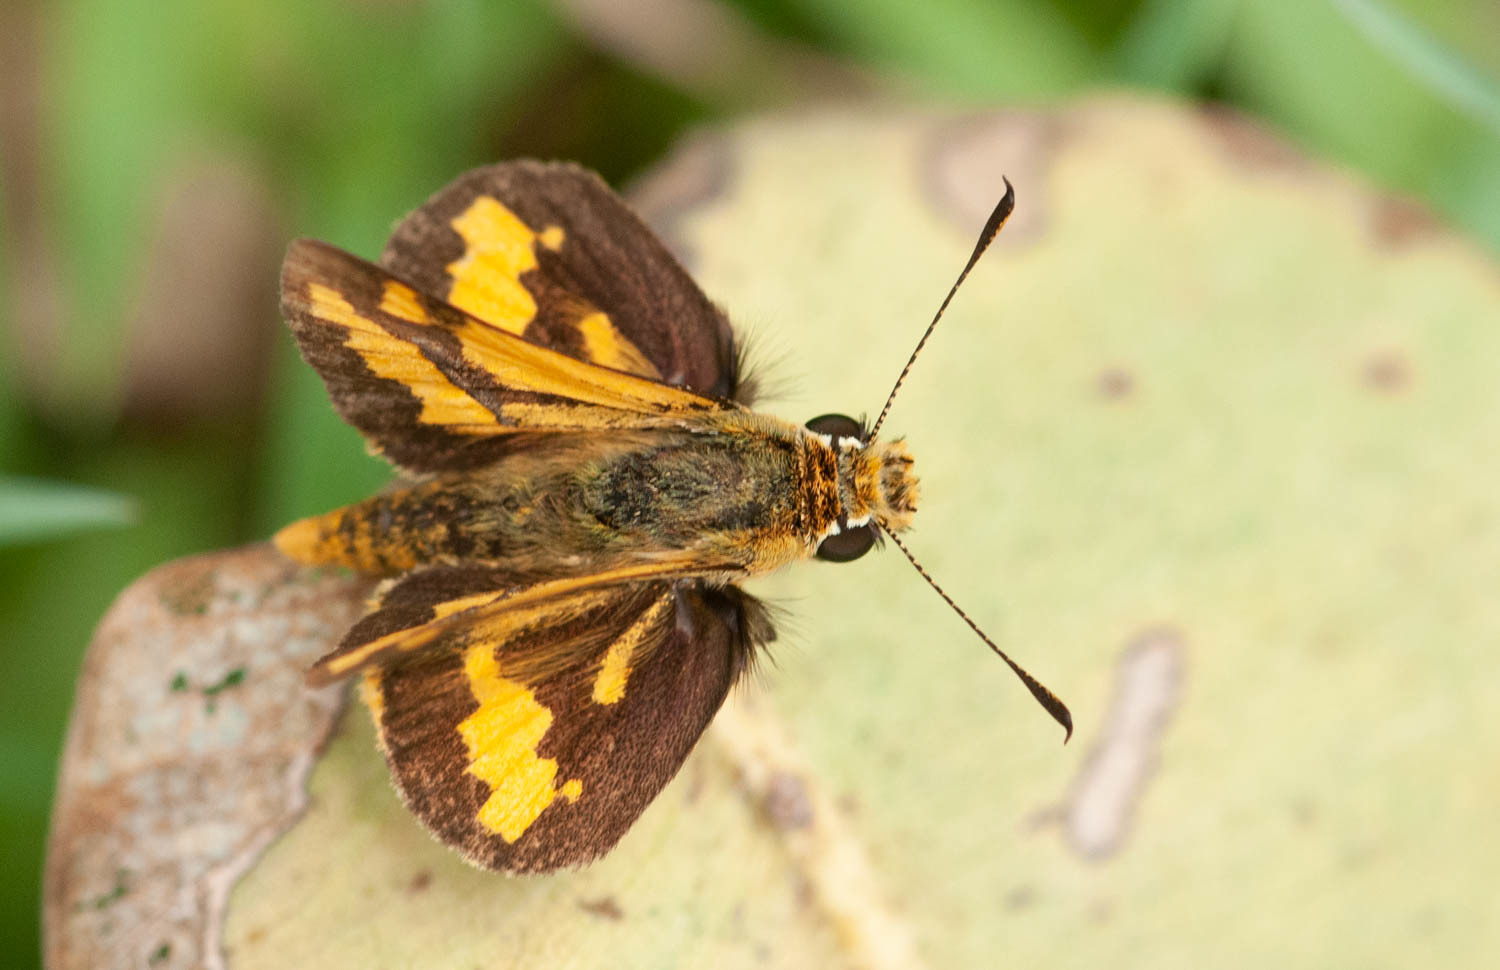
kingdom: Animalia
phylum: Arthropoda
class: Insecta
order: Lepidoptera
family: Hesperiidae
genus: Ocybadistes
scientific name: Ocybadistes flavovittata
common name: Narrow-brand grass-dart
